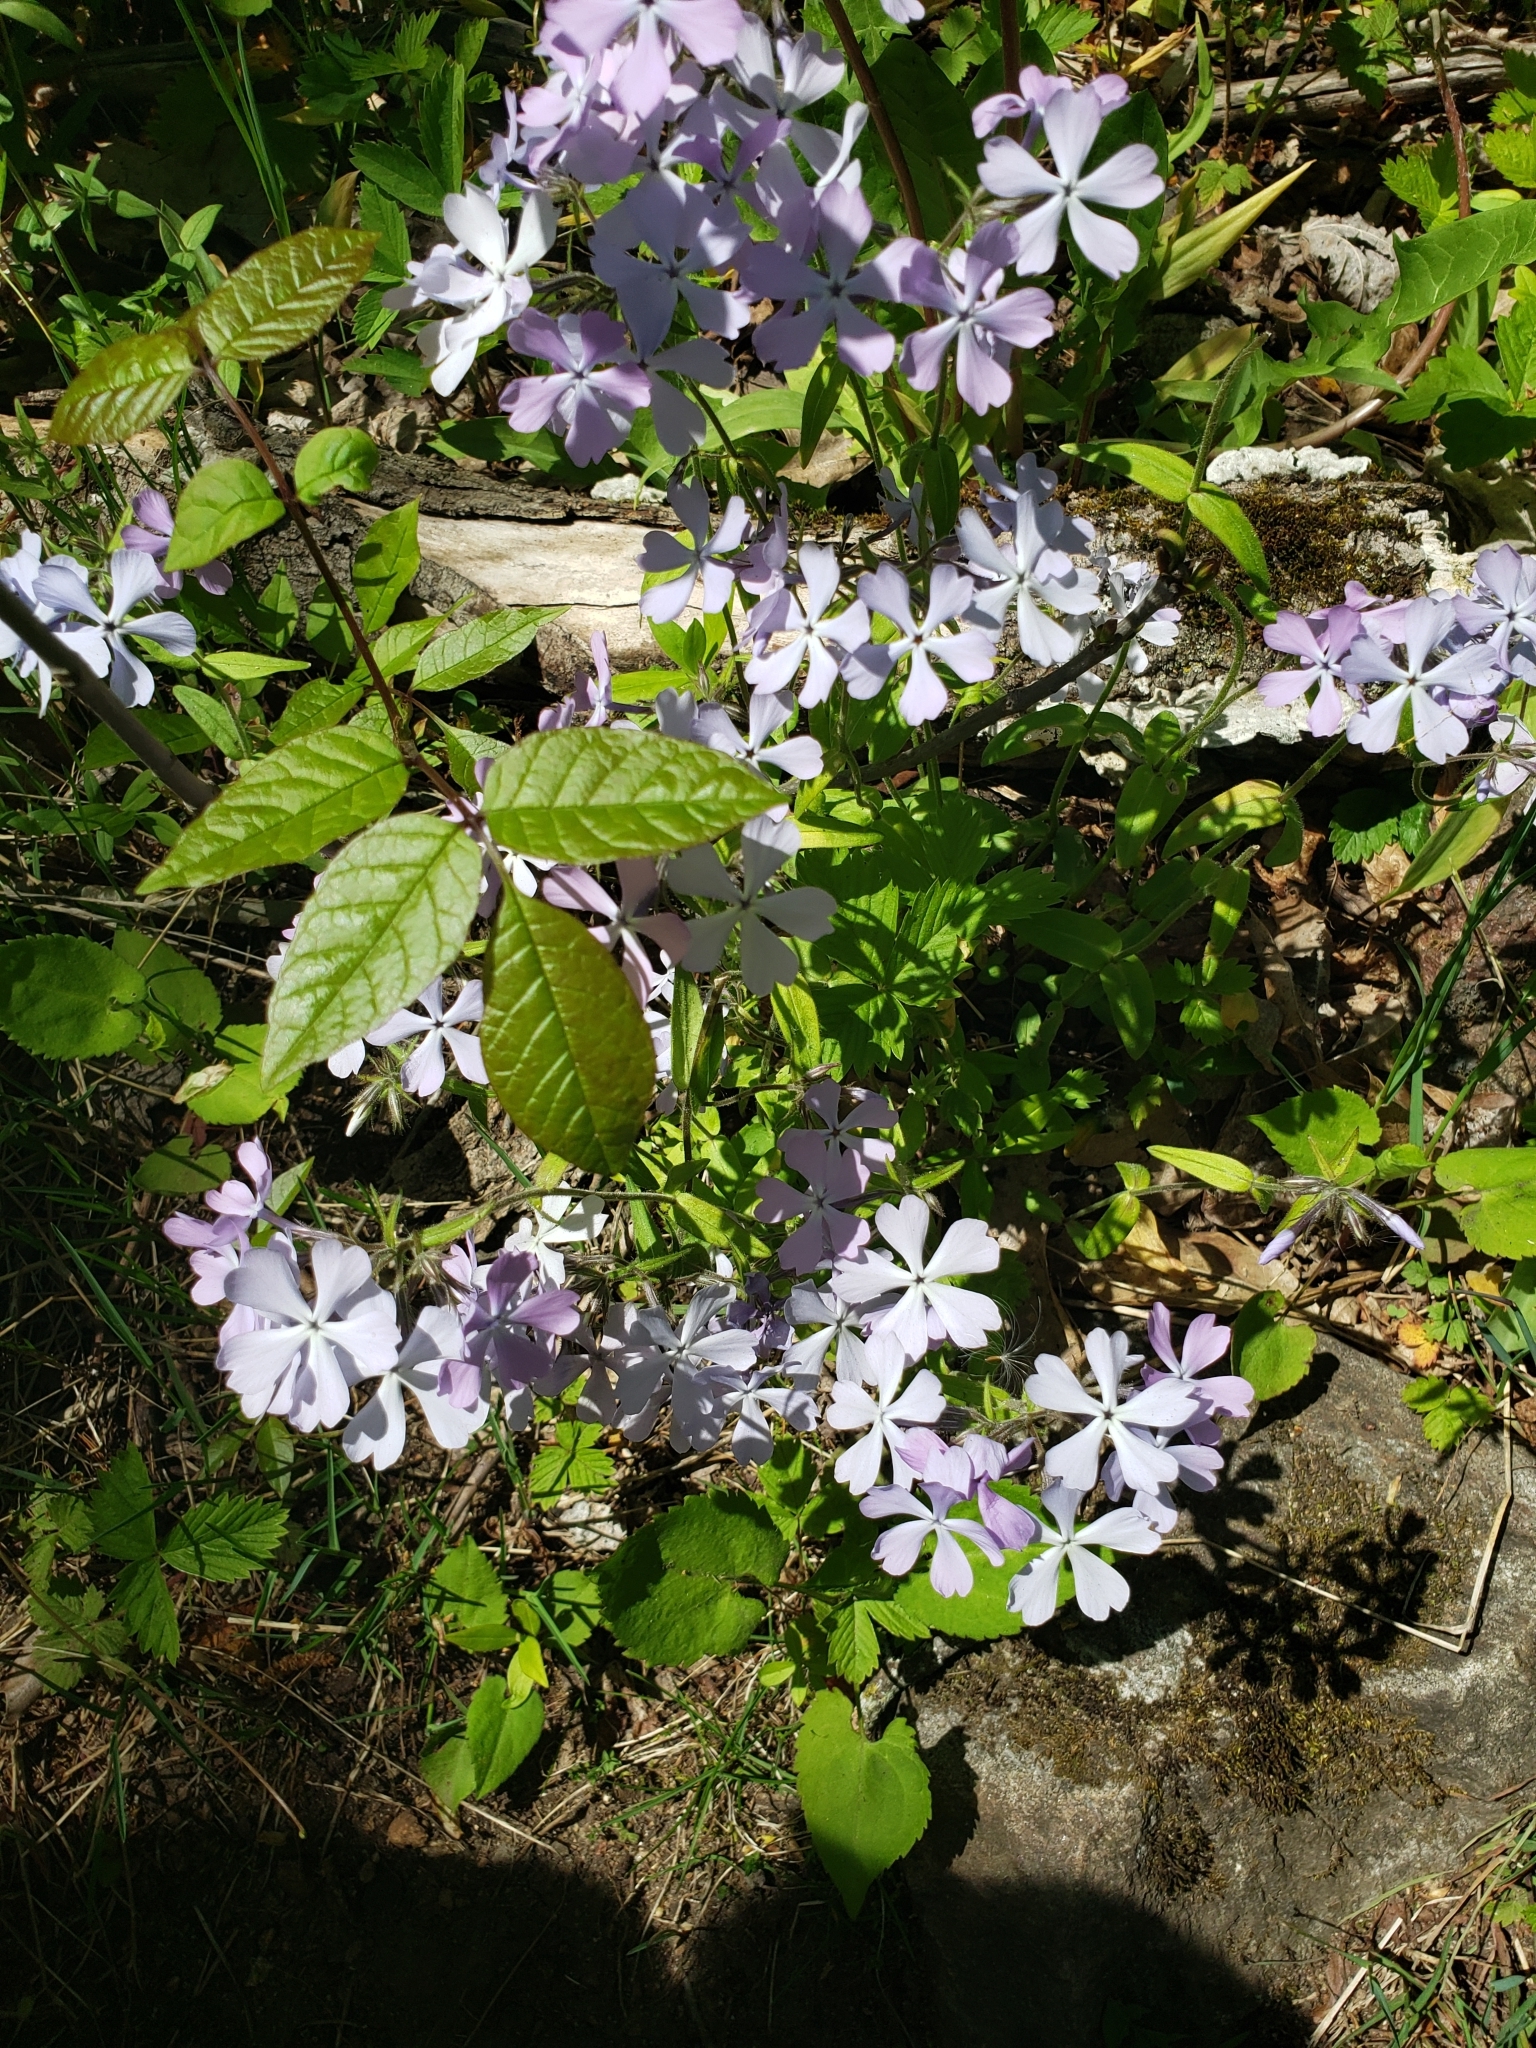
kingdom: Plantae
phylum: Tracheophyta
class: Magnoliopsida
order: Ericales
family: Polemoniaceae
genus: Phlox
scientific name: Phlox divaricata
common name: Blue phlox
